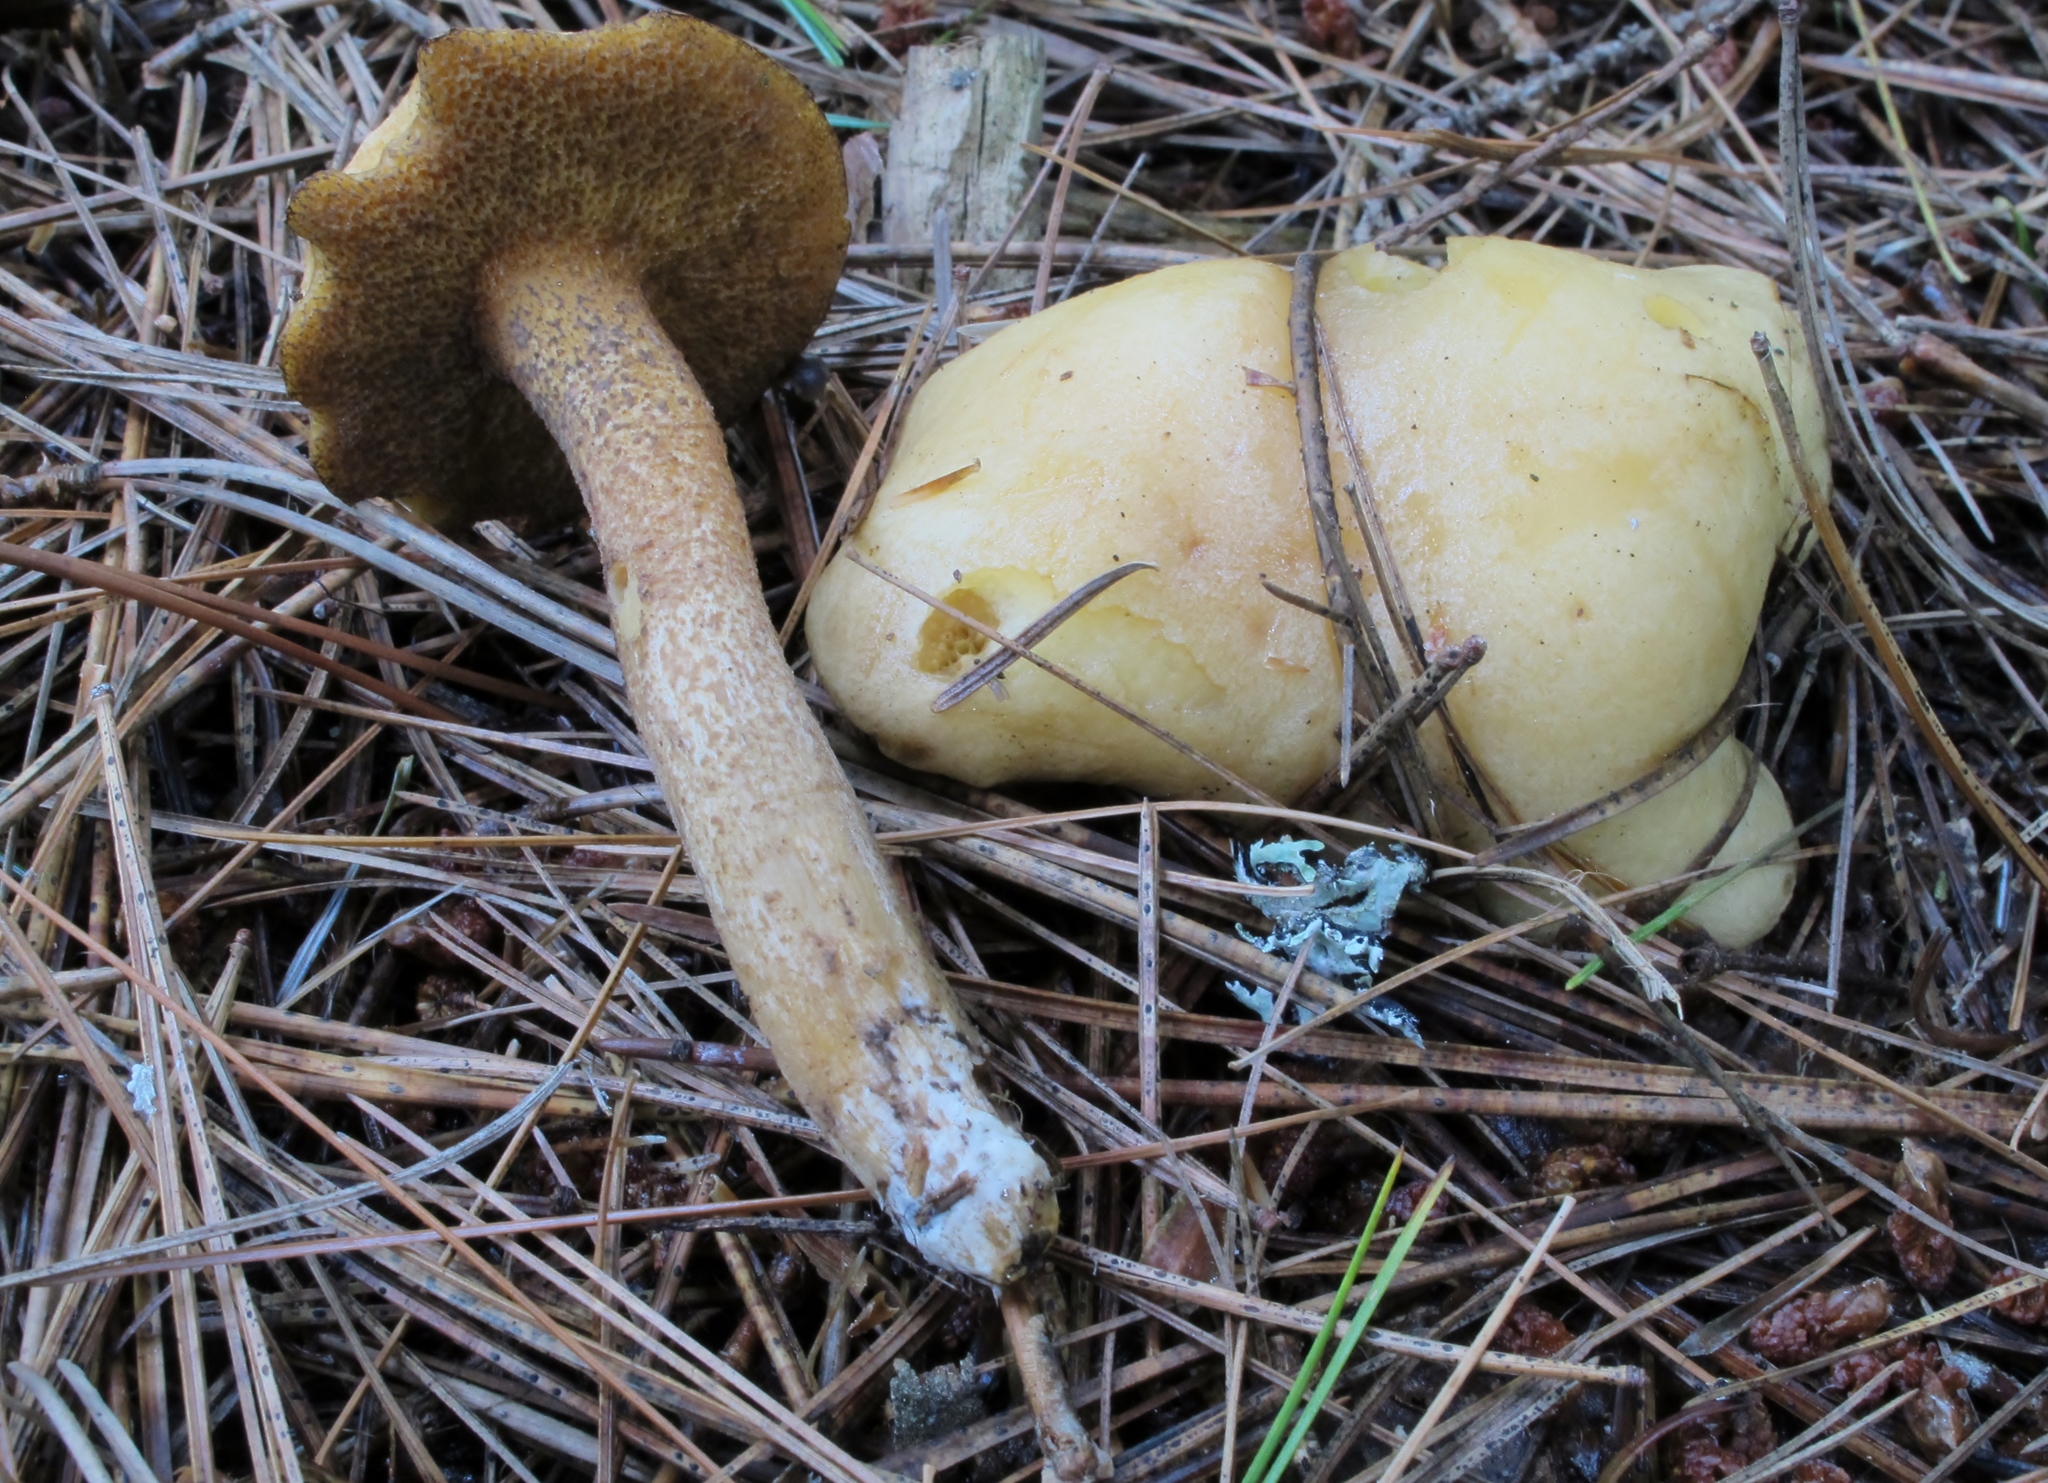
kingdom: Fungi
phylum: Basidiomycota
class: Agaricomycetes
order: Boletales
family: Suillaceae
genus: Suillus
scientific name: Suillus punctipes
